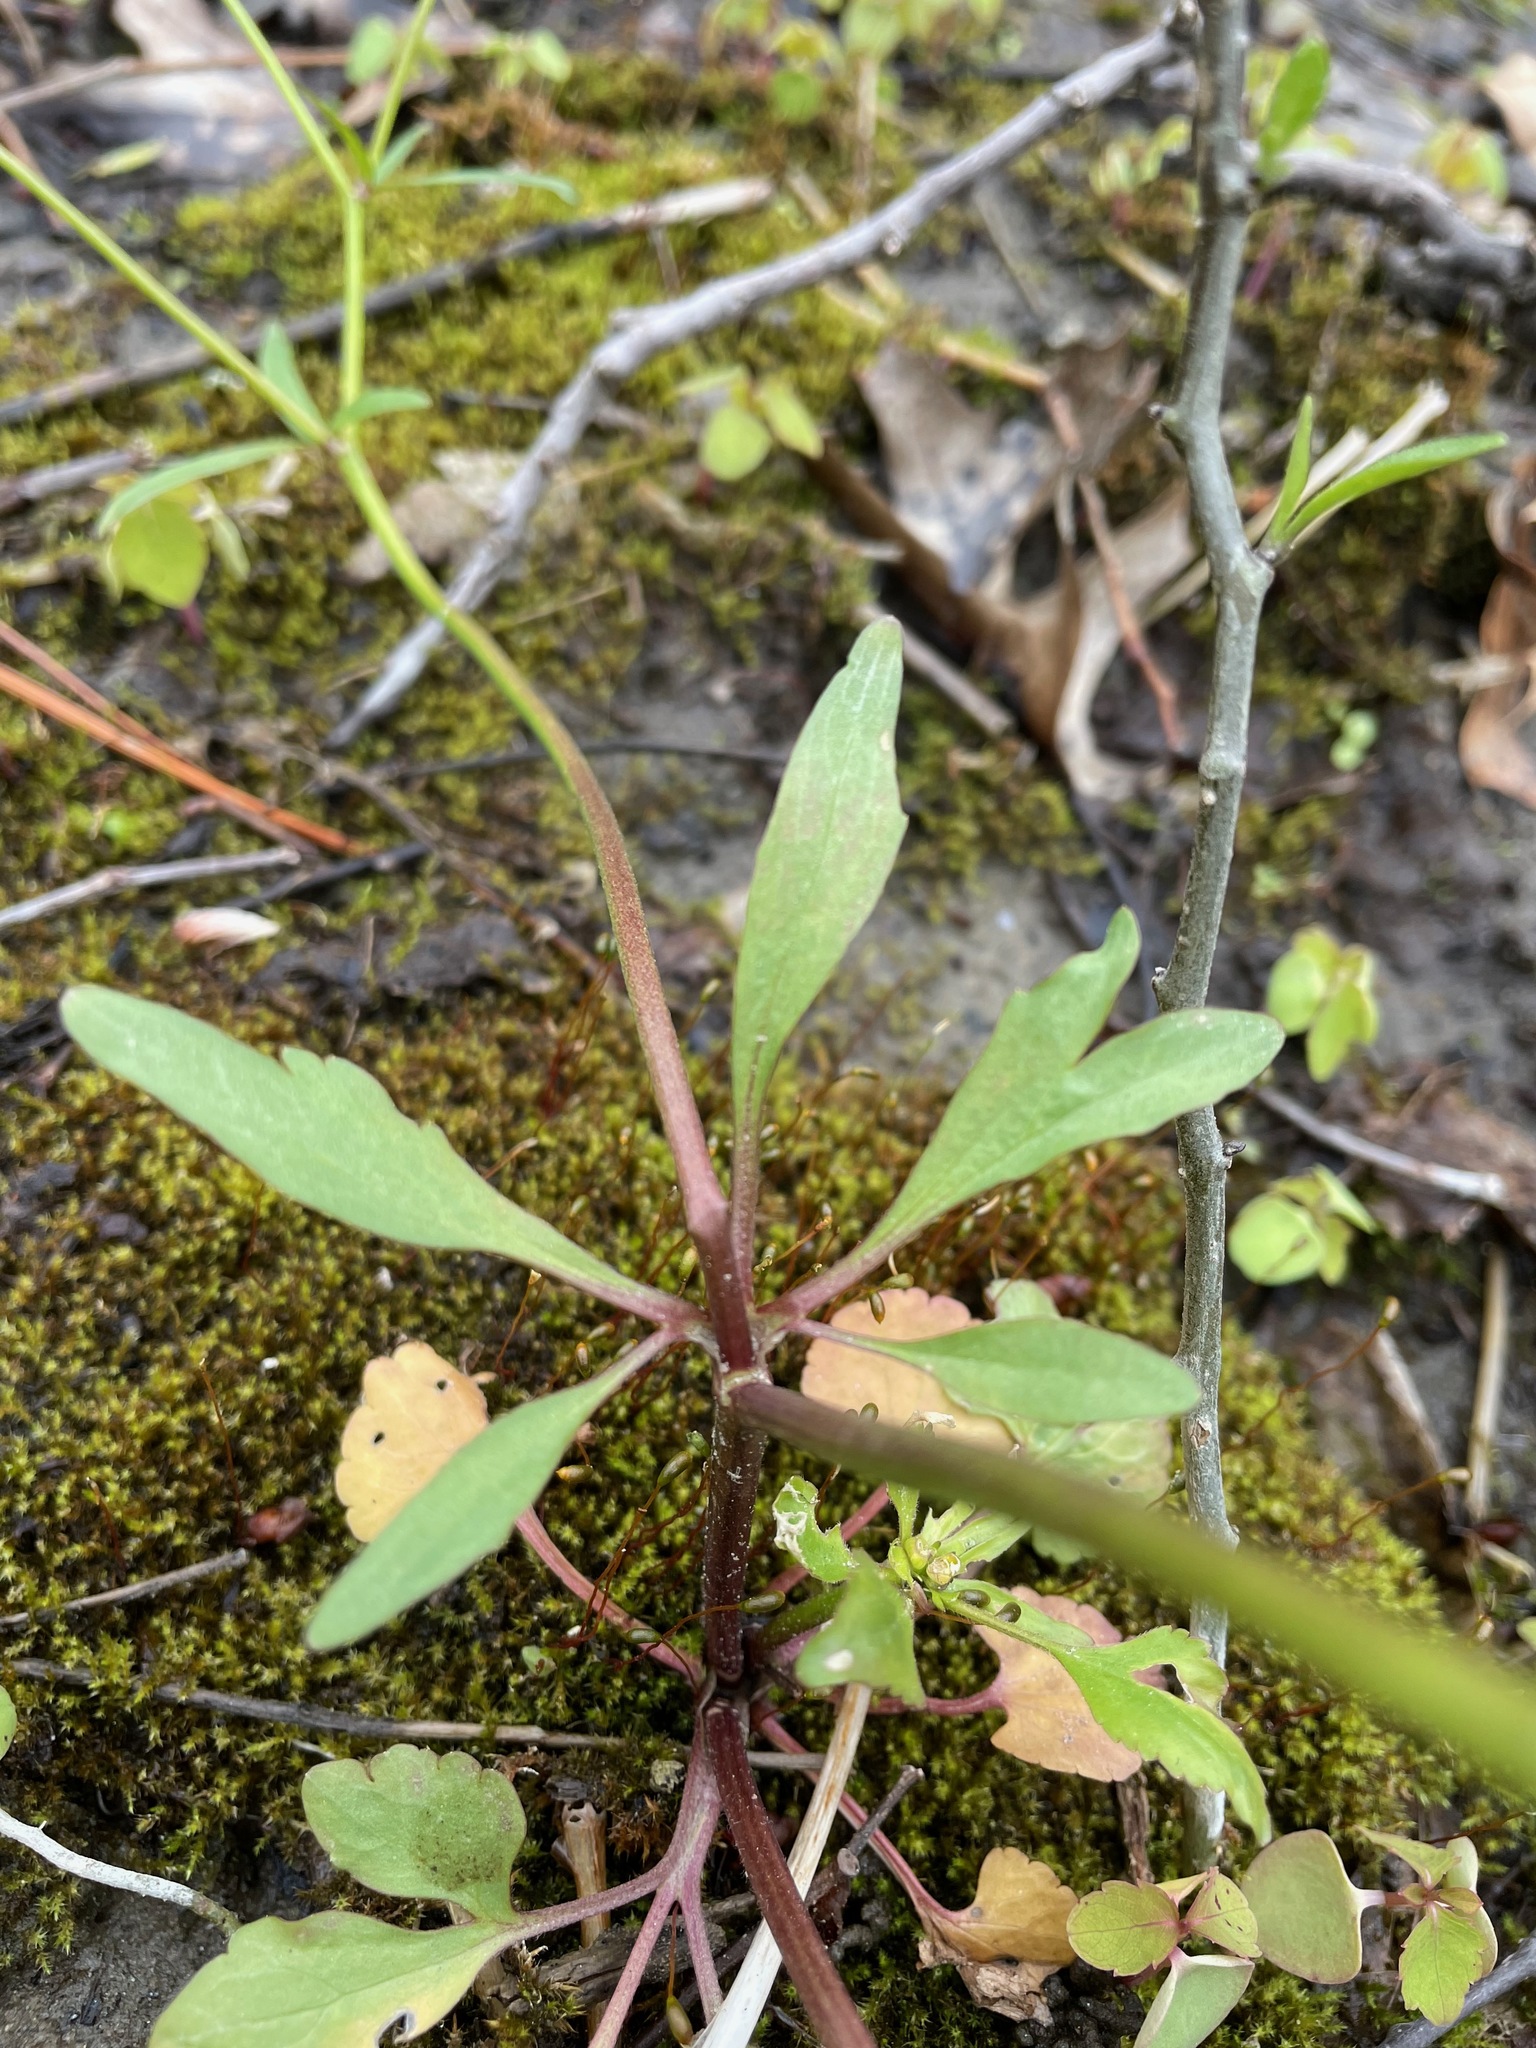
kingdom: Plantae
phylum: Tracheophyta
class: Magnoliopsida
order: Ranunculales
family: Ranunculaceae
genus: Ranunculus
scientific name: Ranunculus abortivus
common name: Early wood buttercup
